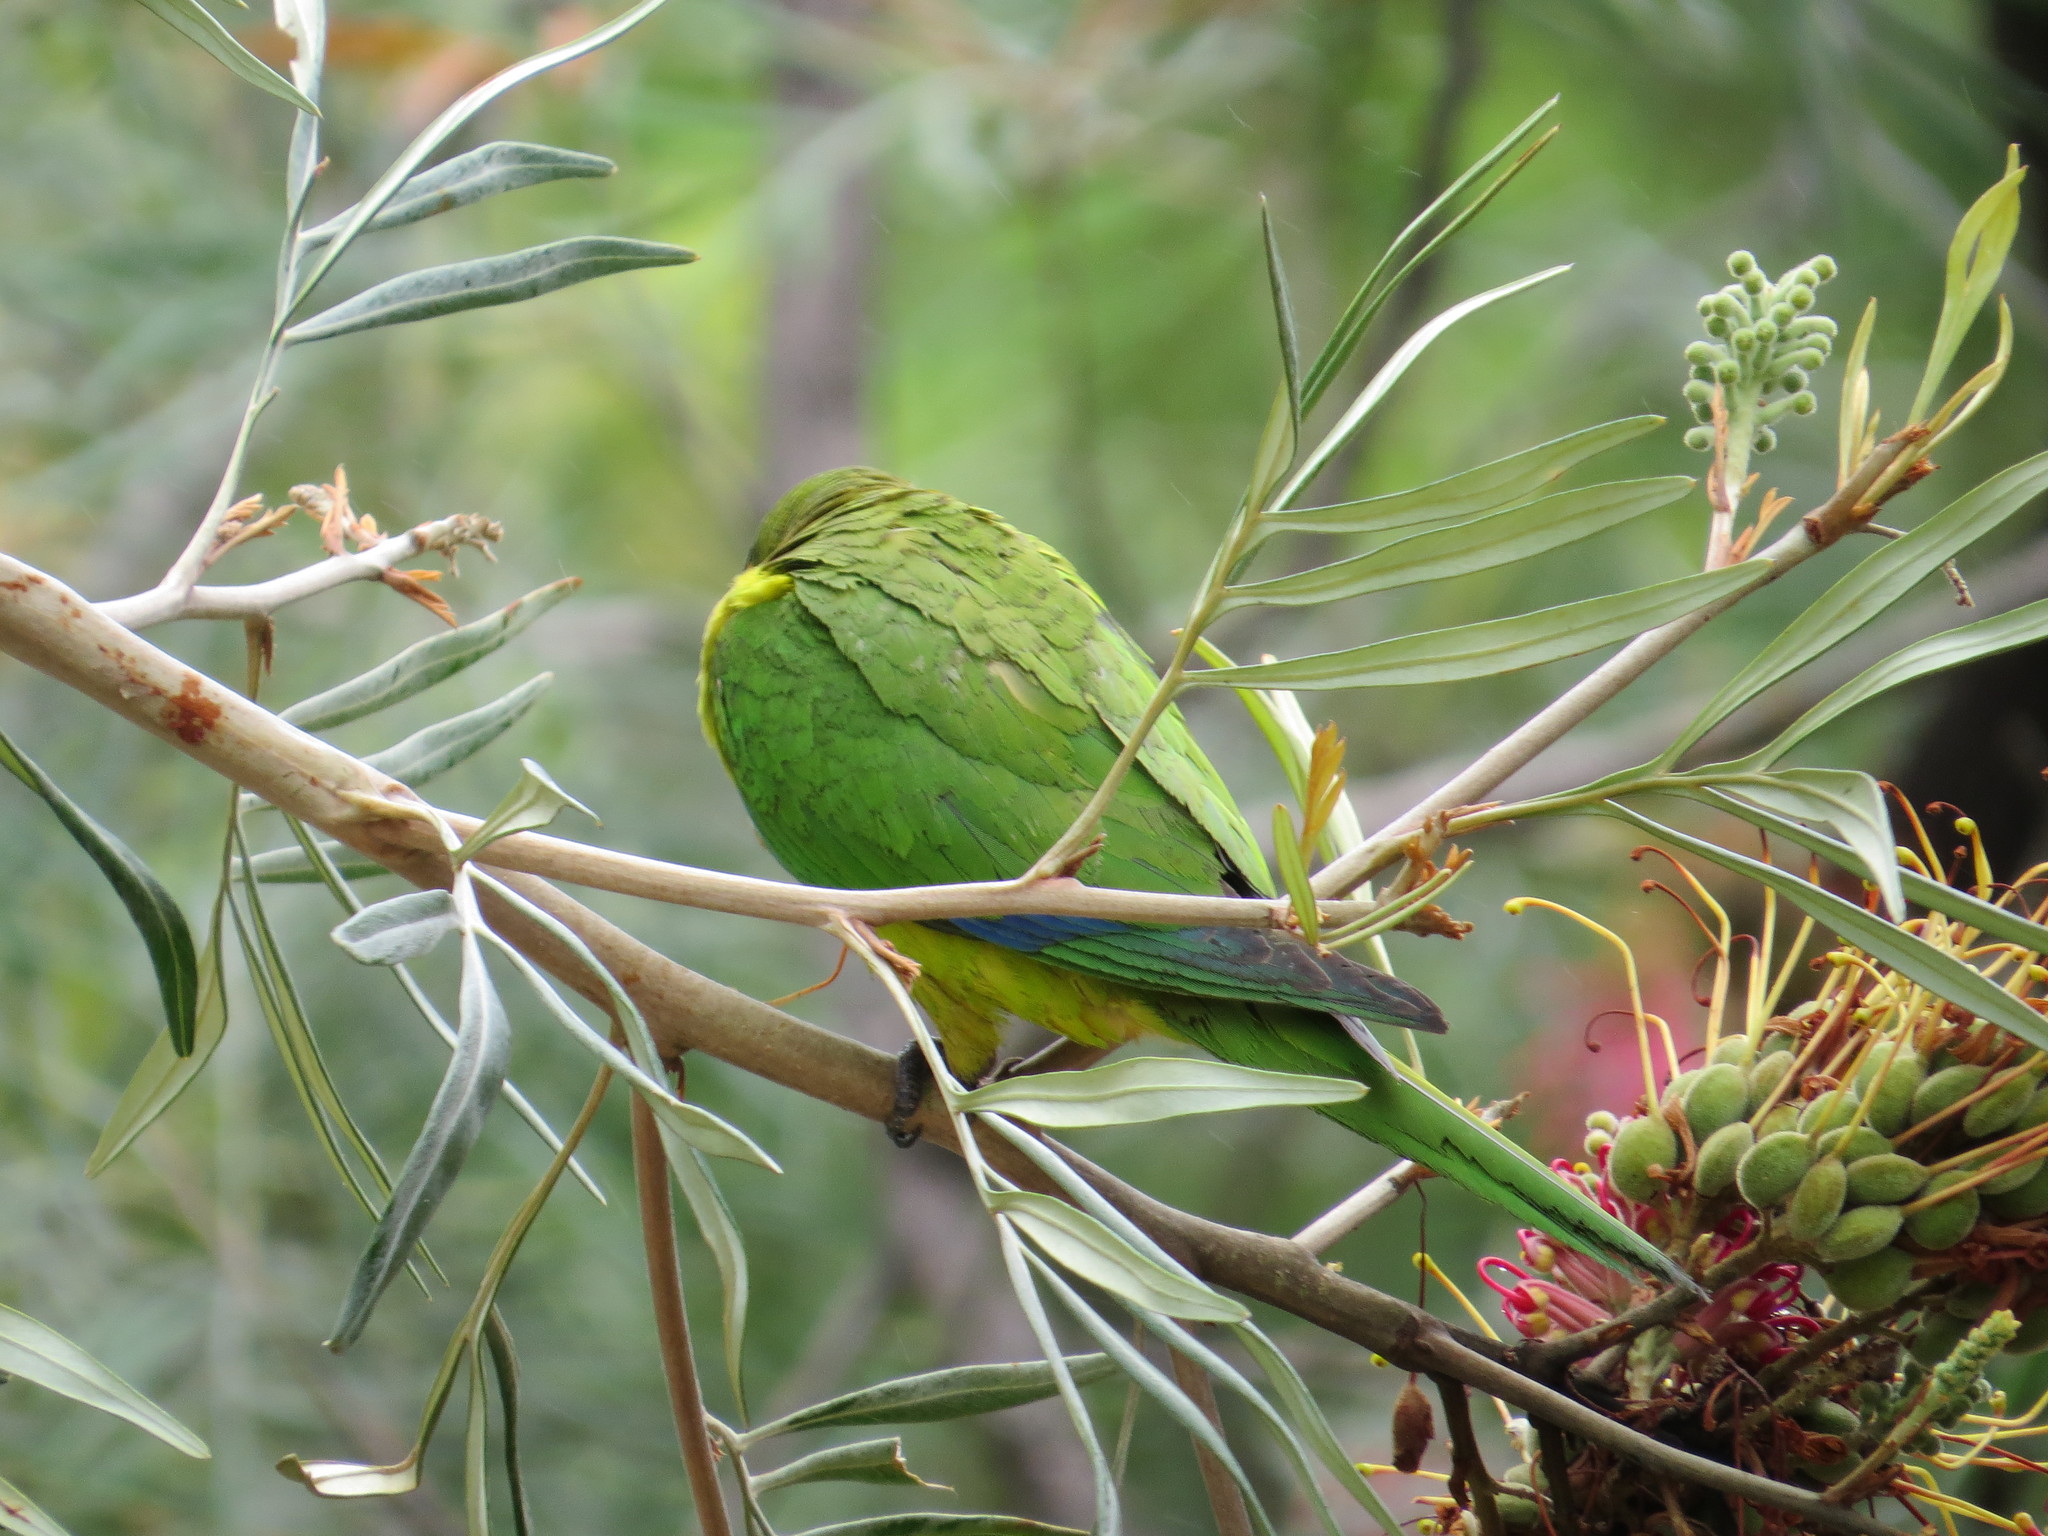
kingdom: Animalia
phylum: Chordata
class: Aves
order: Psittaciformes
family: Psittacidae
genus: Aratinga
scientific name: Aratinga aurea
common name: Peach-fronted parakeet
